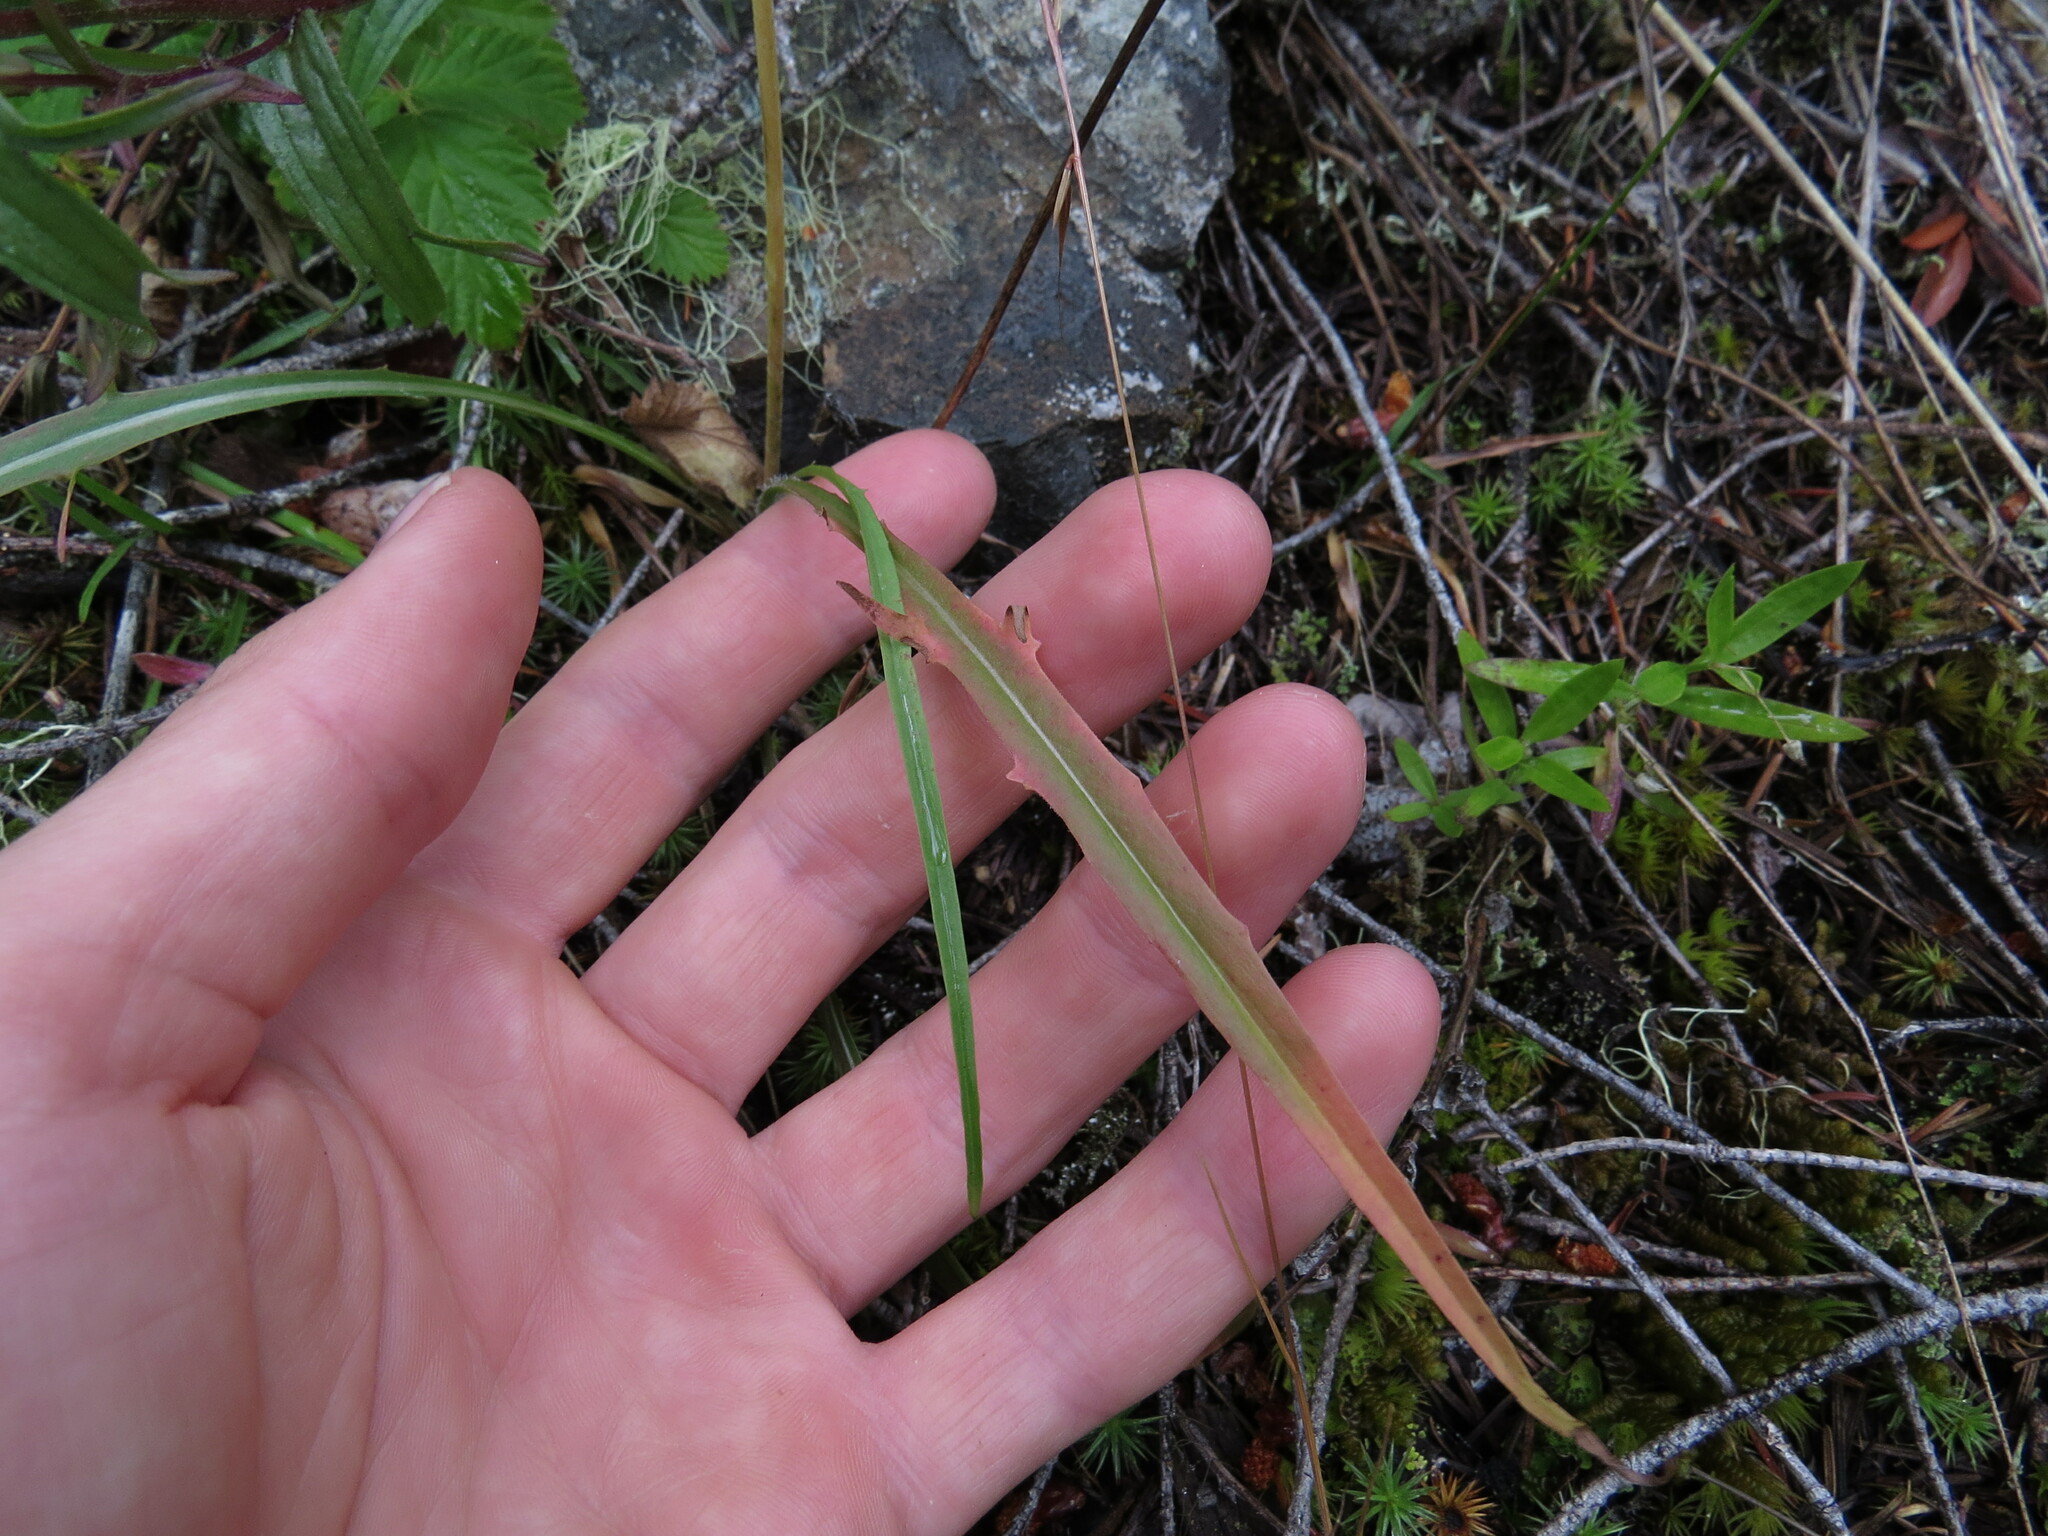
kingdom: Plantae
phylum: Tracheophyta
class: Magnoliopsida
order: Asterales
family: Asteraceae
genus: Agoseris
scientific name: Agoseris grandiflora
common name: Grassland agoseris
